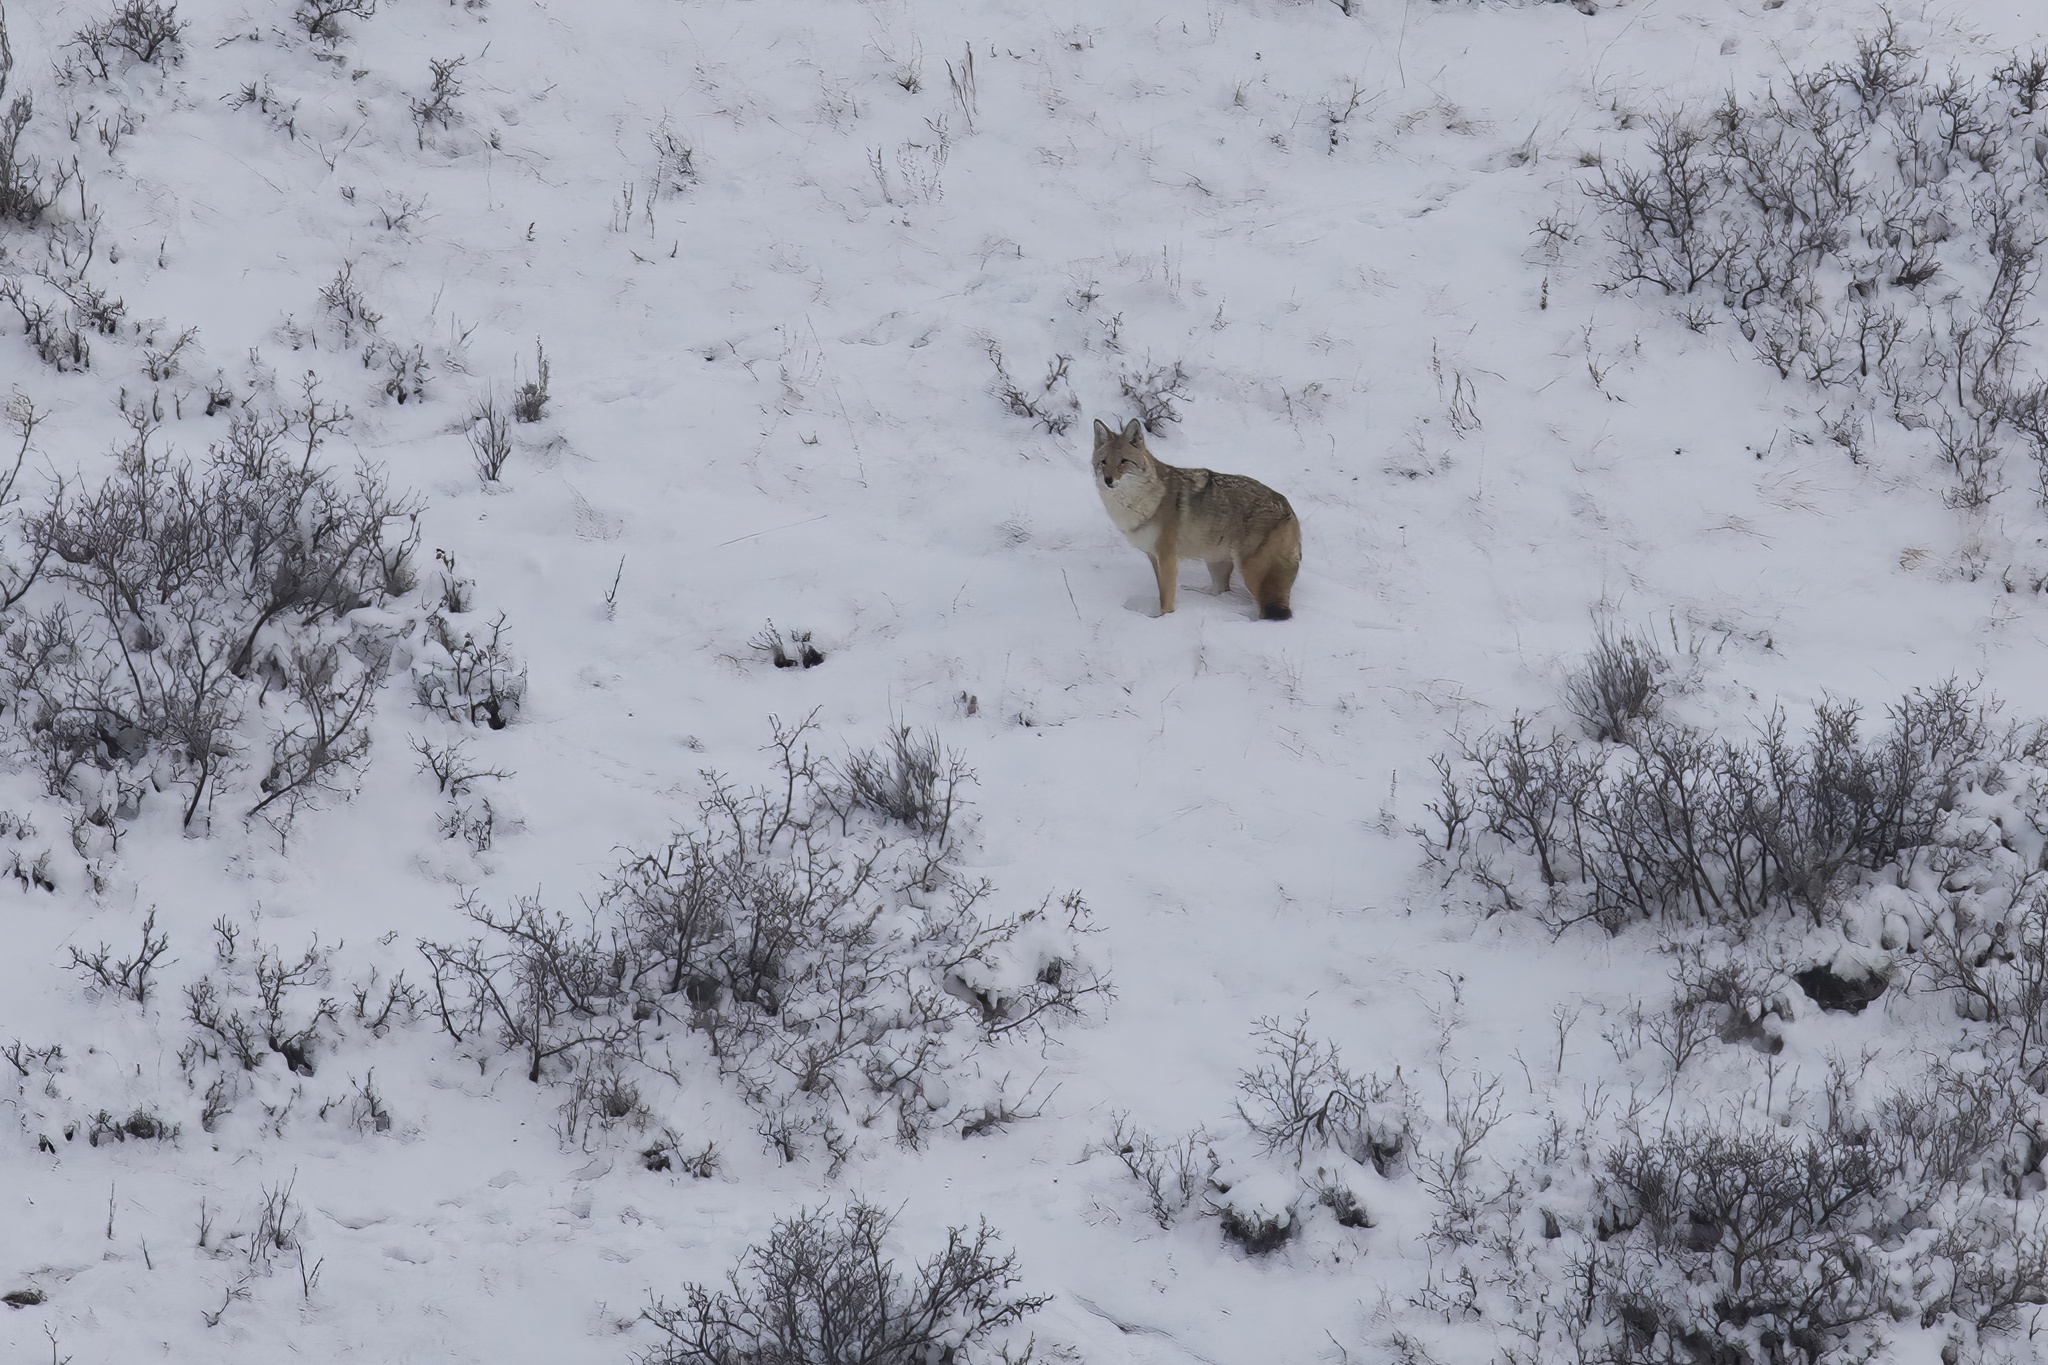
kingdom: Animalia
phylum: Chordata
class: Mammalia
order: Carnivora
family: Canidae
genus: Canis
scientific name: Canis latrans
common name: Coyote
